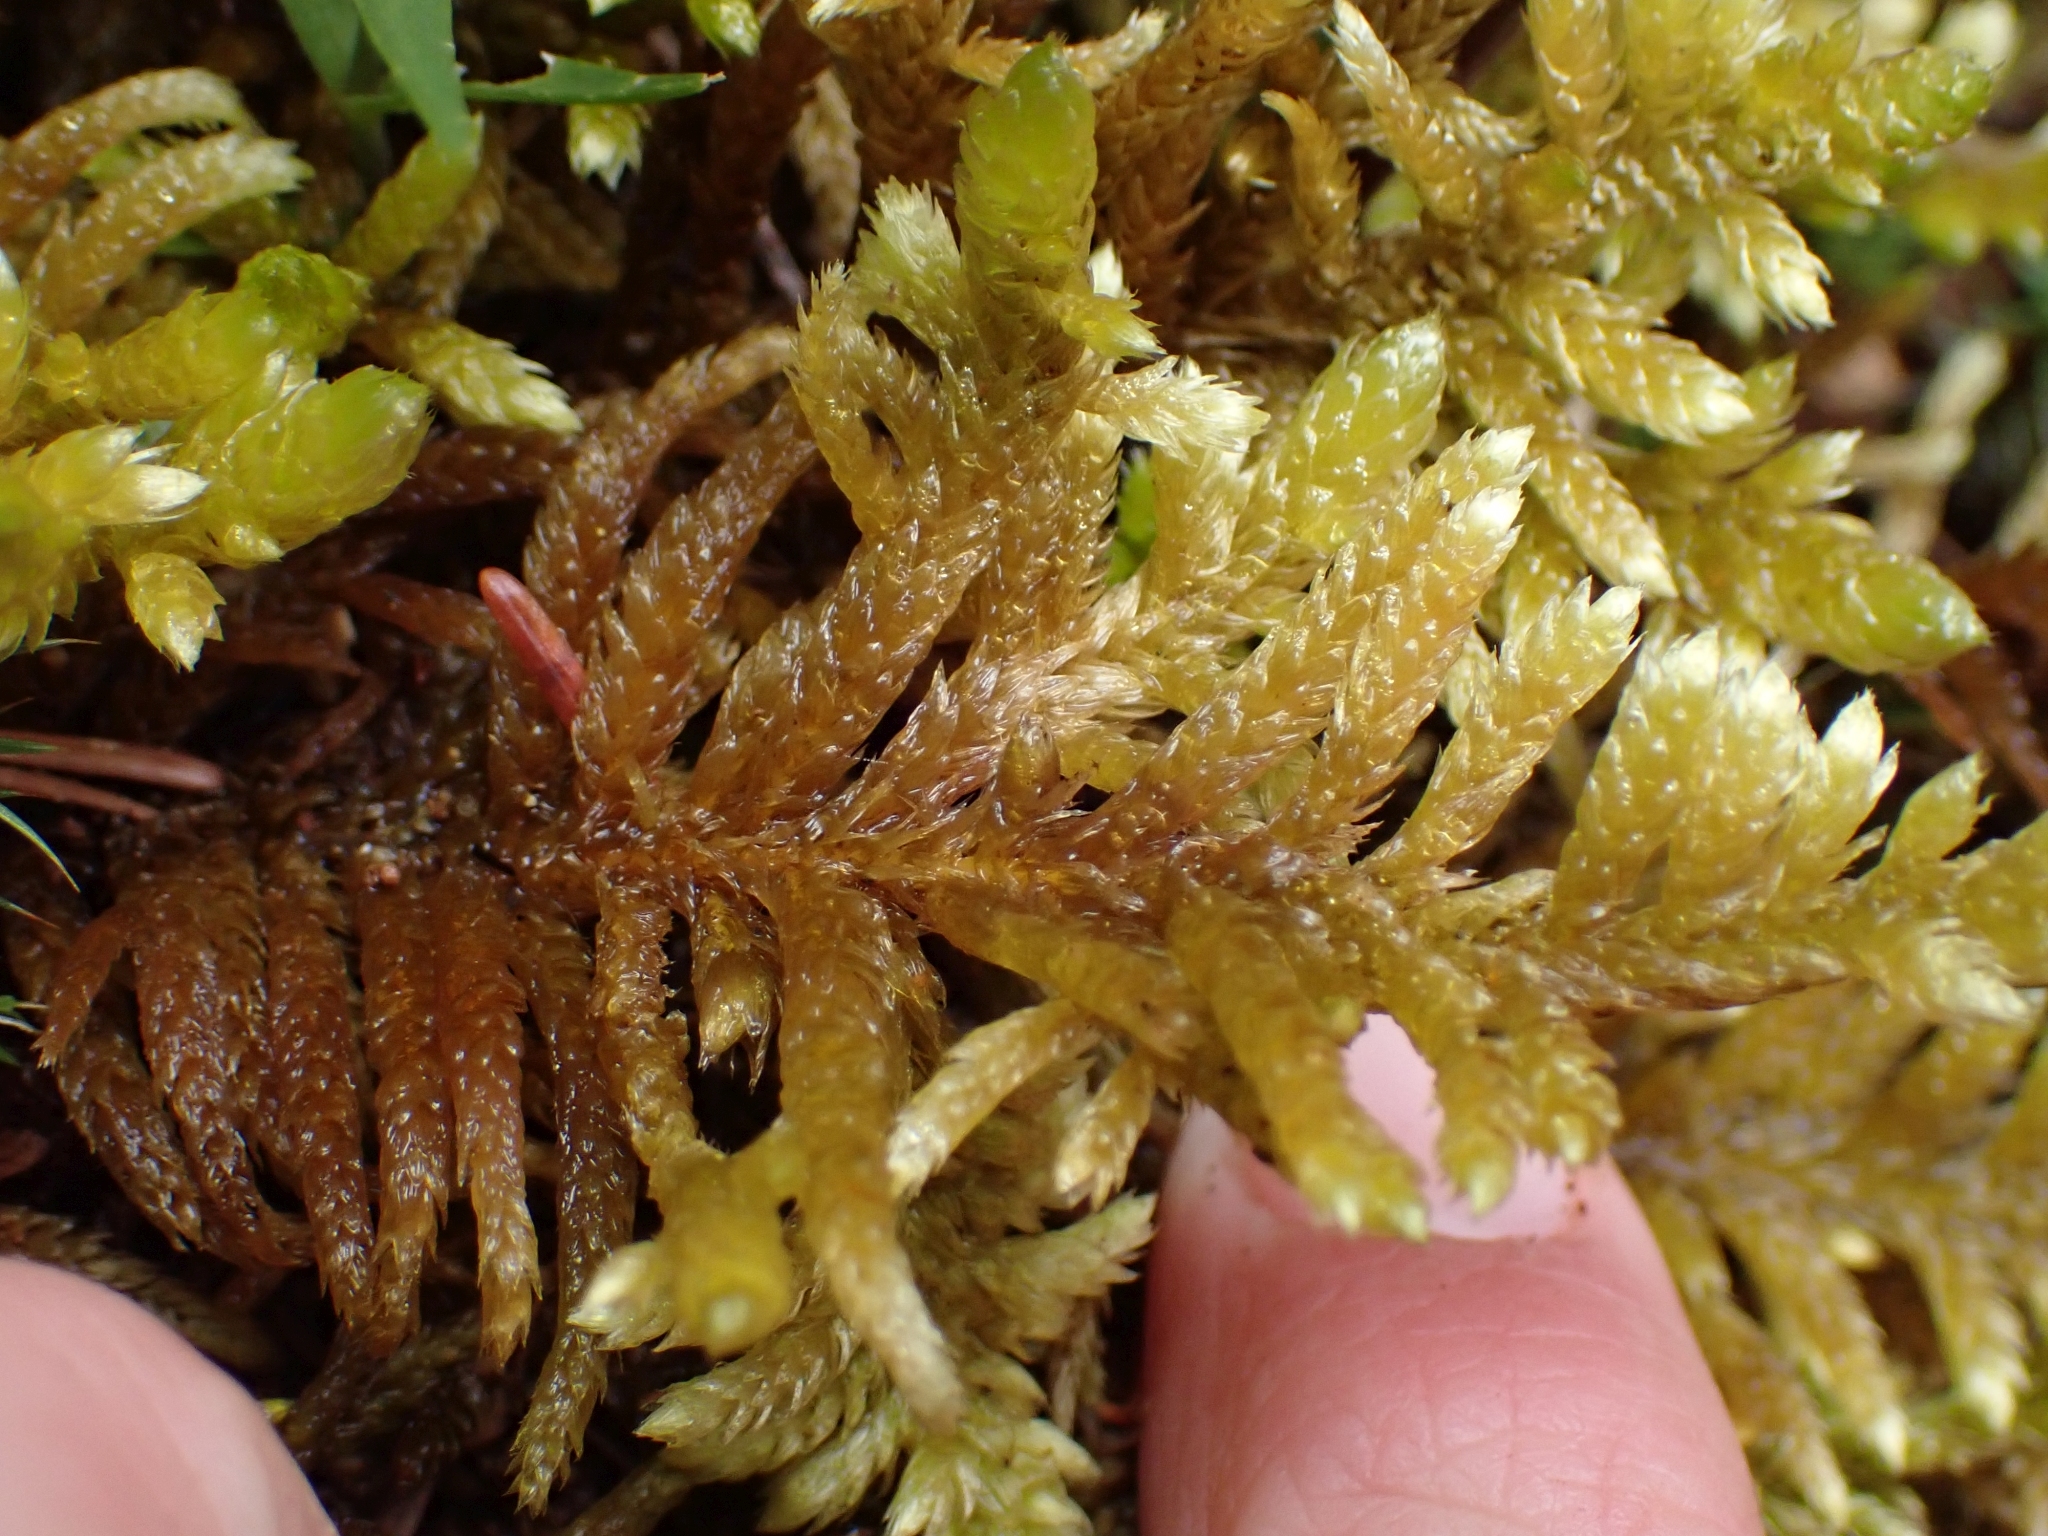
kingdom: Plantae
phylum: Bryophyta
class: Bryopsida
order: Hypnales
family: Brachytheciaceae
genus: Homalothecium
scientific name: Homalothecium megaptilum
